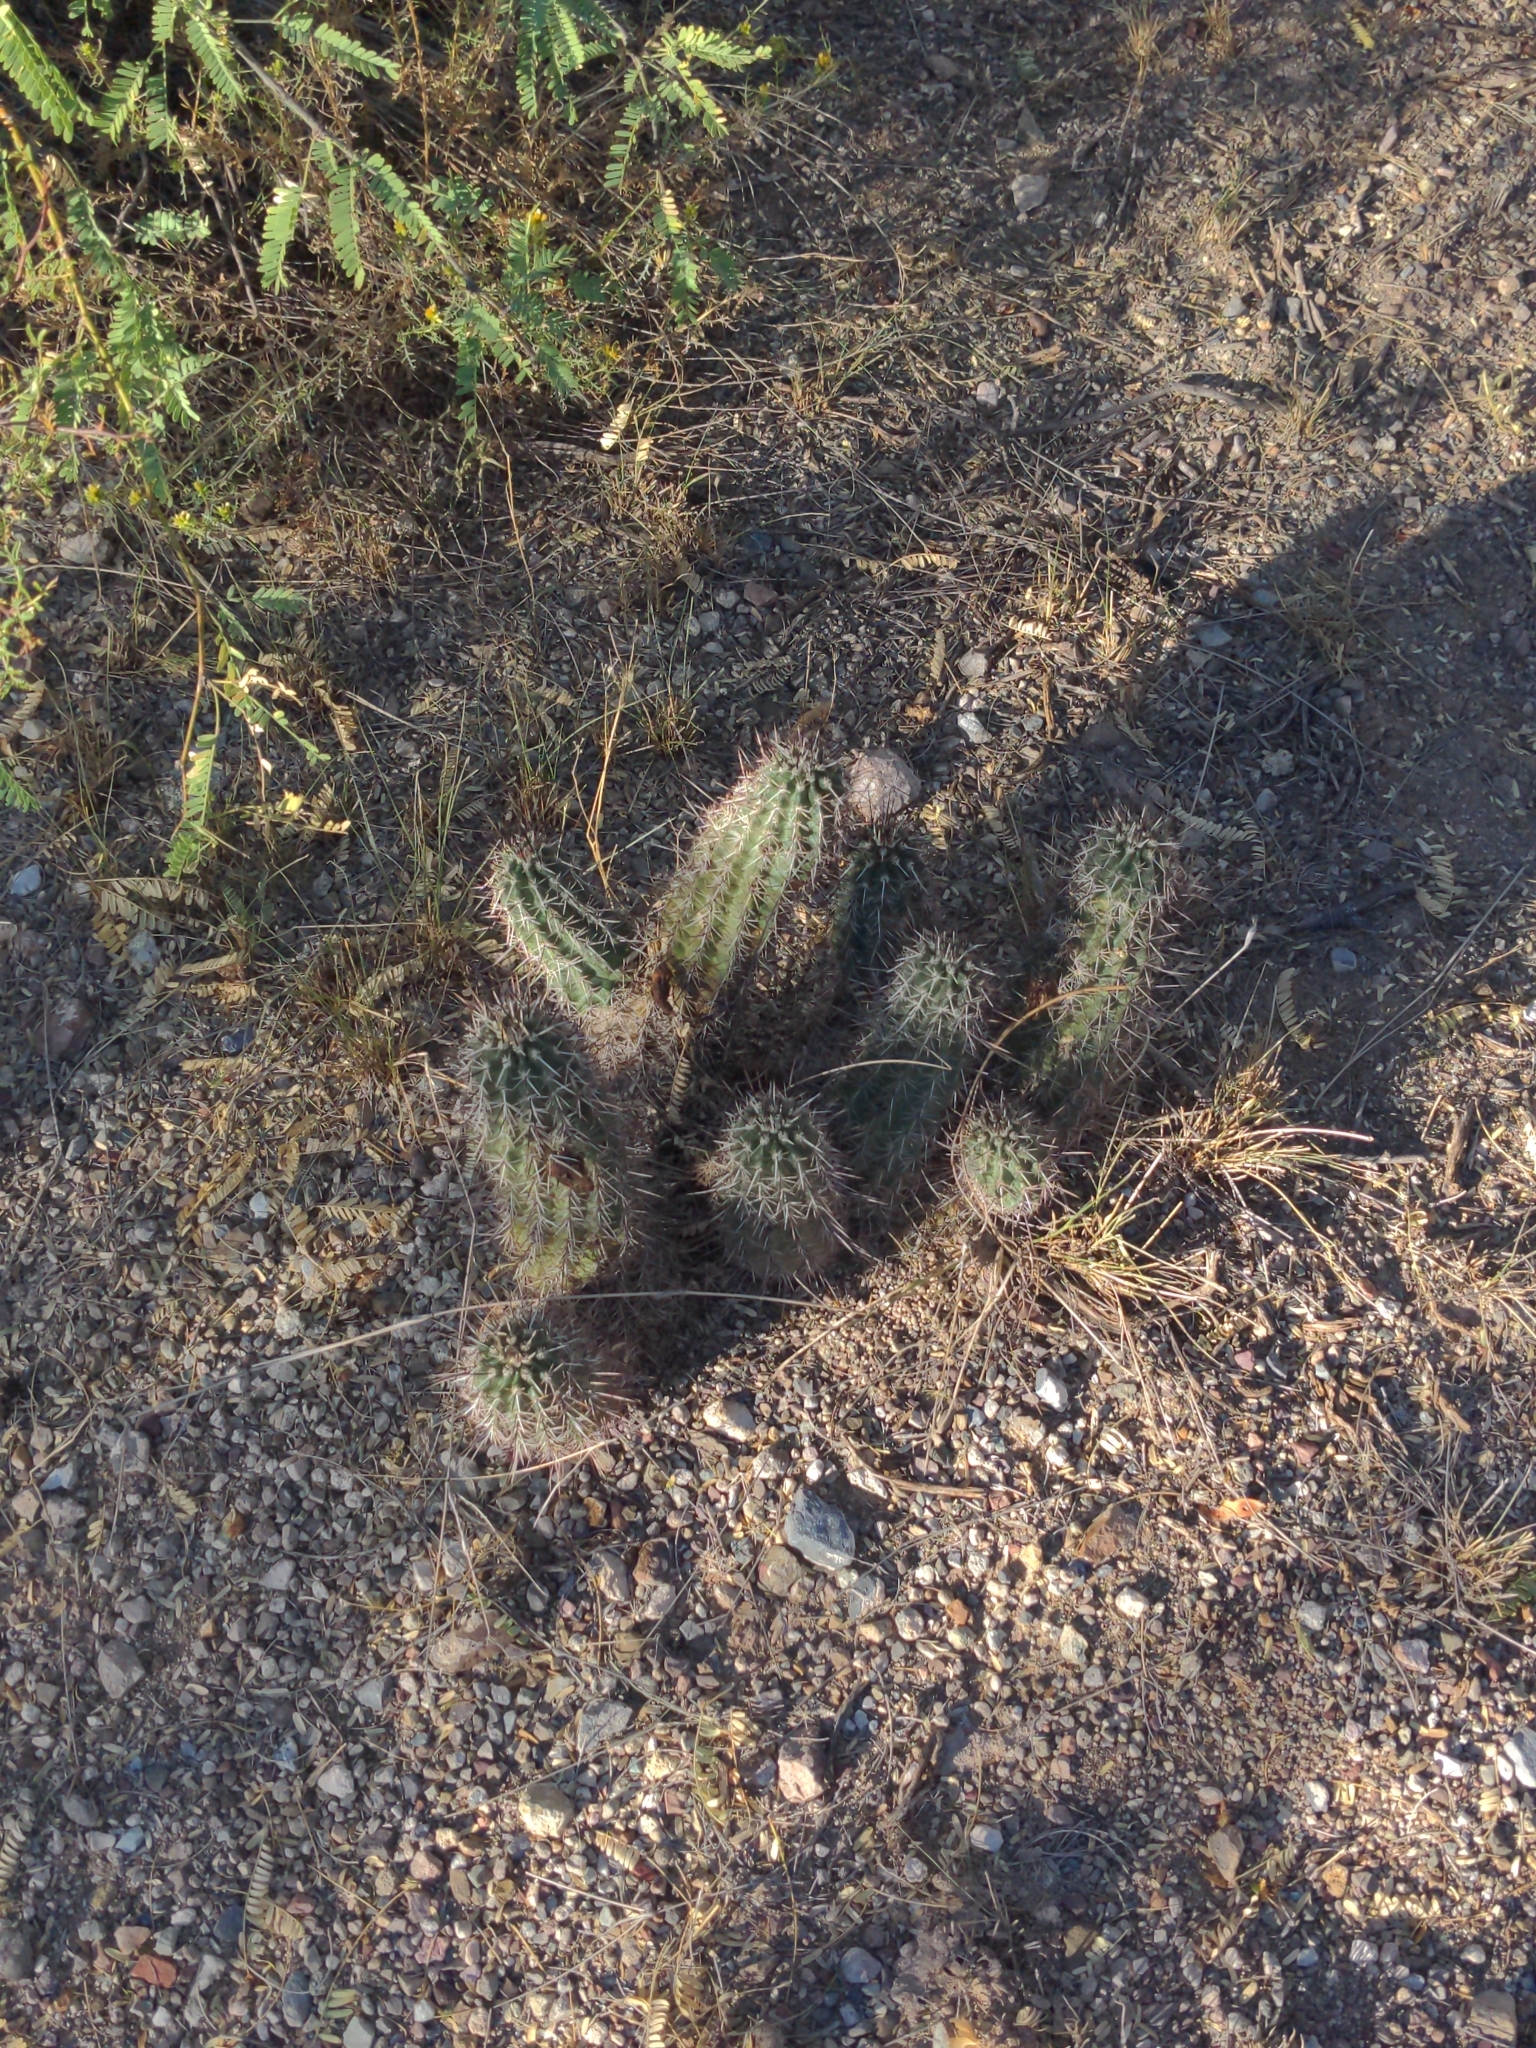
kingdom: Plantae
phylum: Tracheophyta
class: Magnoliopsida
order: Caryophyllales
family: Cactaceae
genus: Echinocereus
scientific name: Echinocereus fasciculatus
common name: Bundle hedgehog
